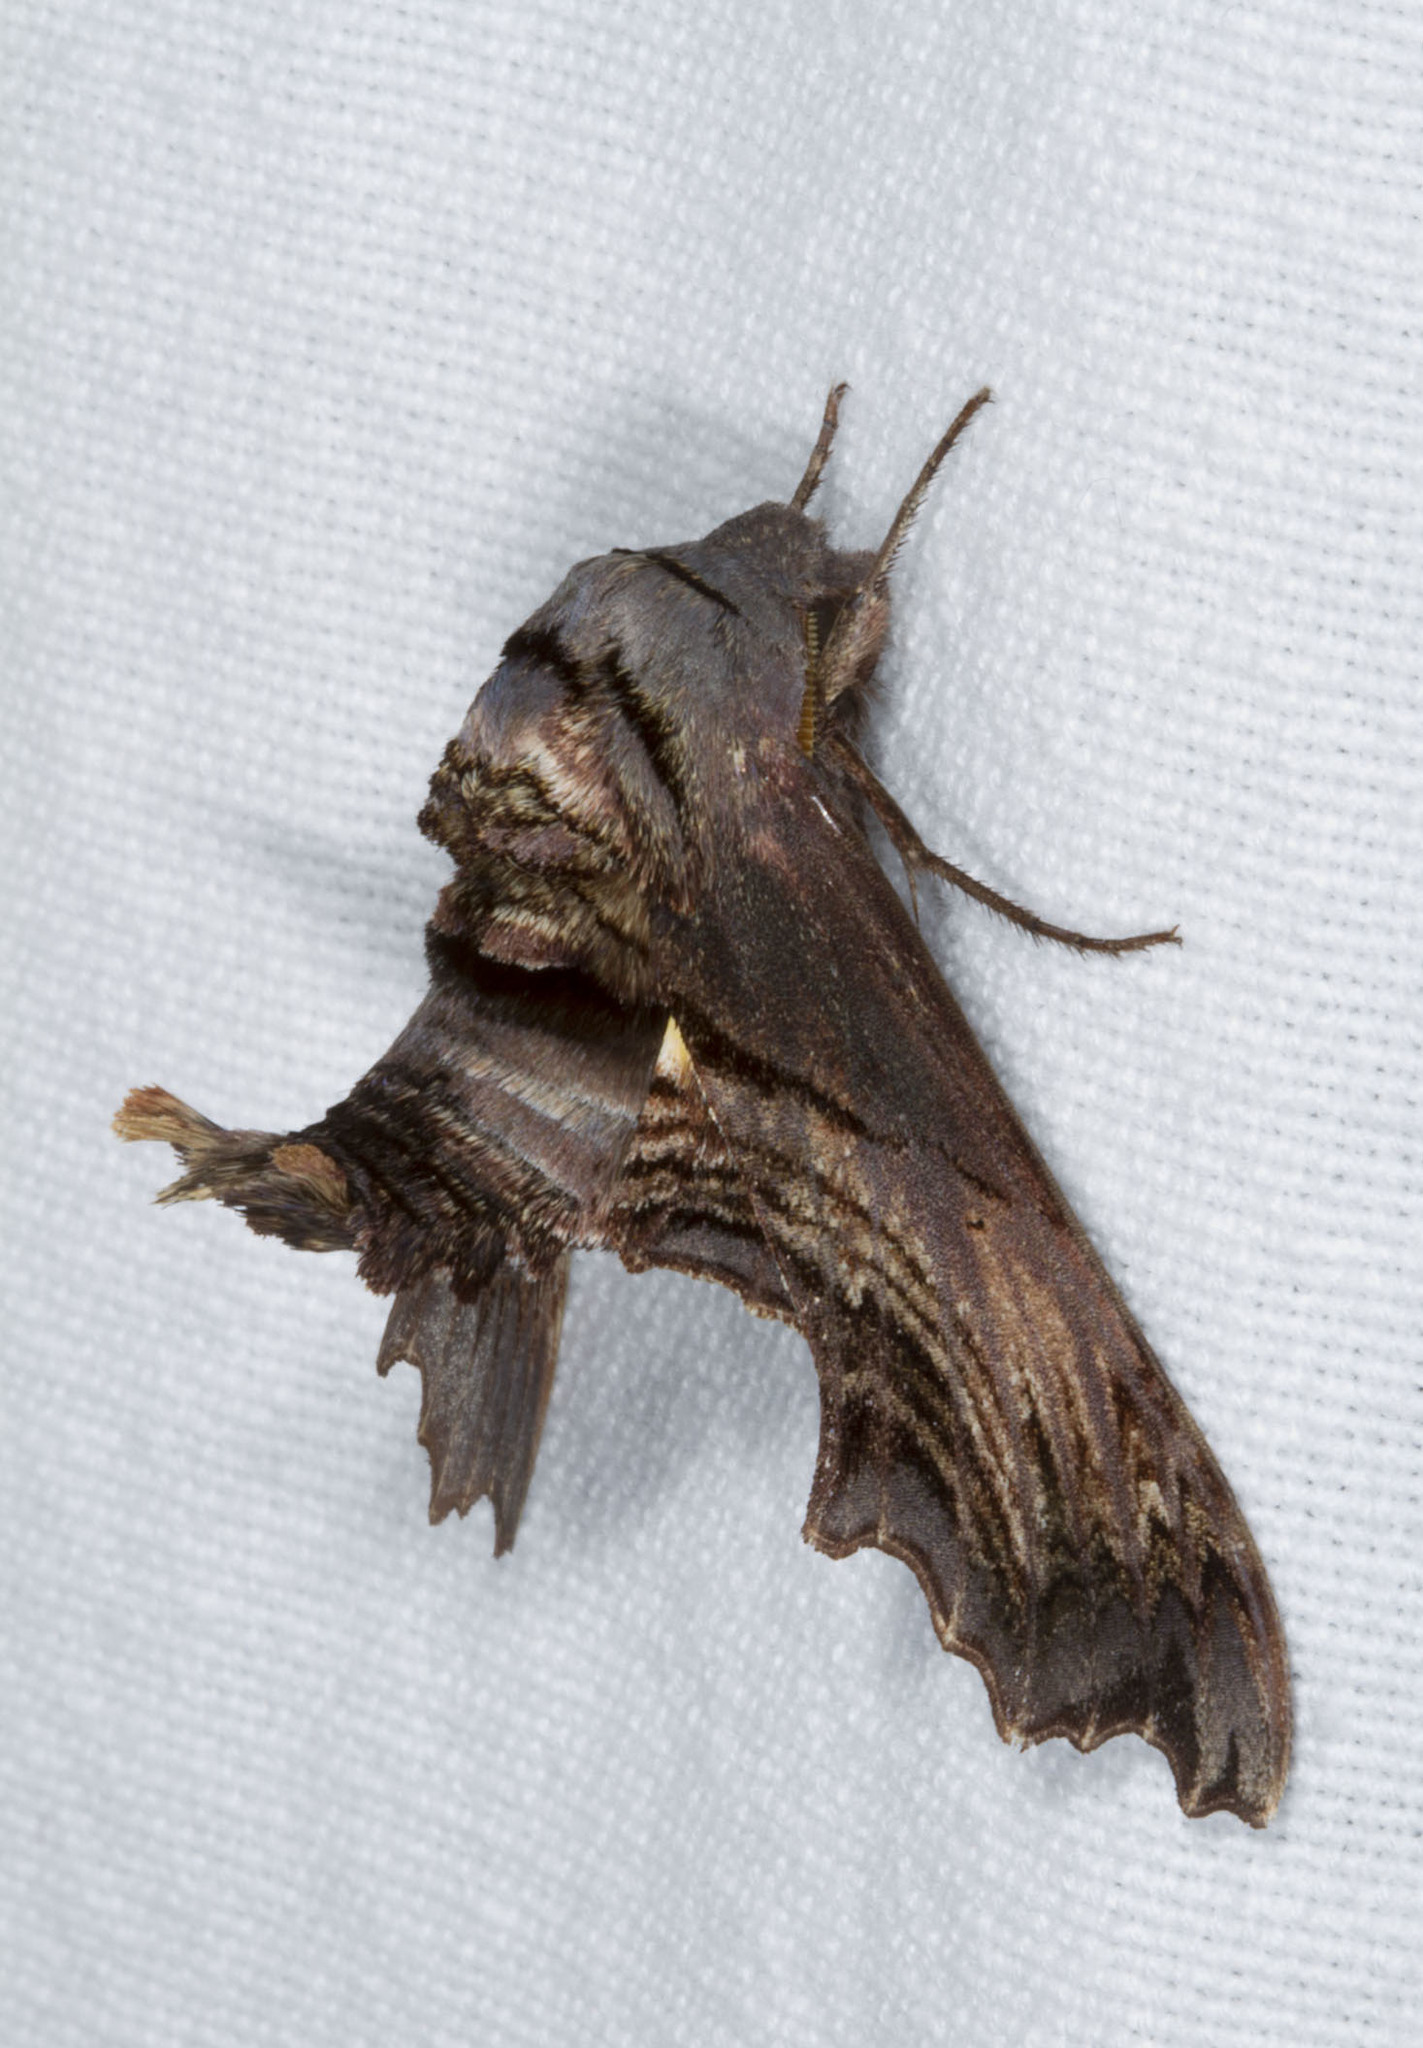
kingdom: Animalia
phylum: Arthropoda
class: Insecta
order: Lepidoptera
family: Sphingidae
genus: Sphecodina
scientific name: Sphecodina abbottii
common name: Abbott's sphinx
